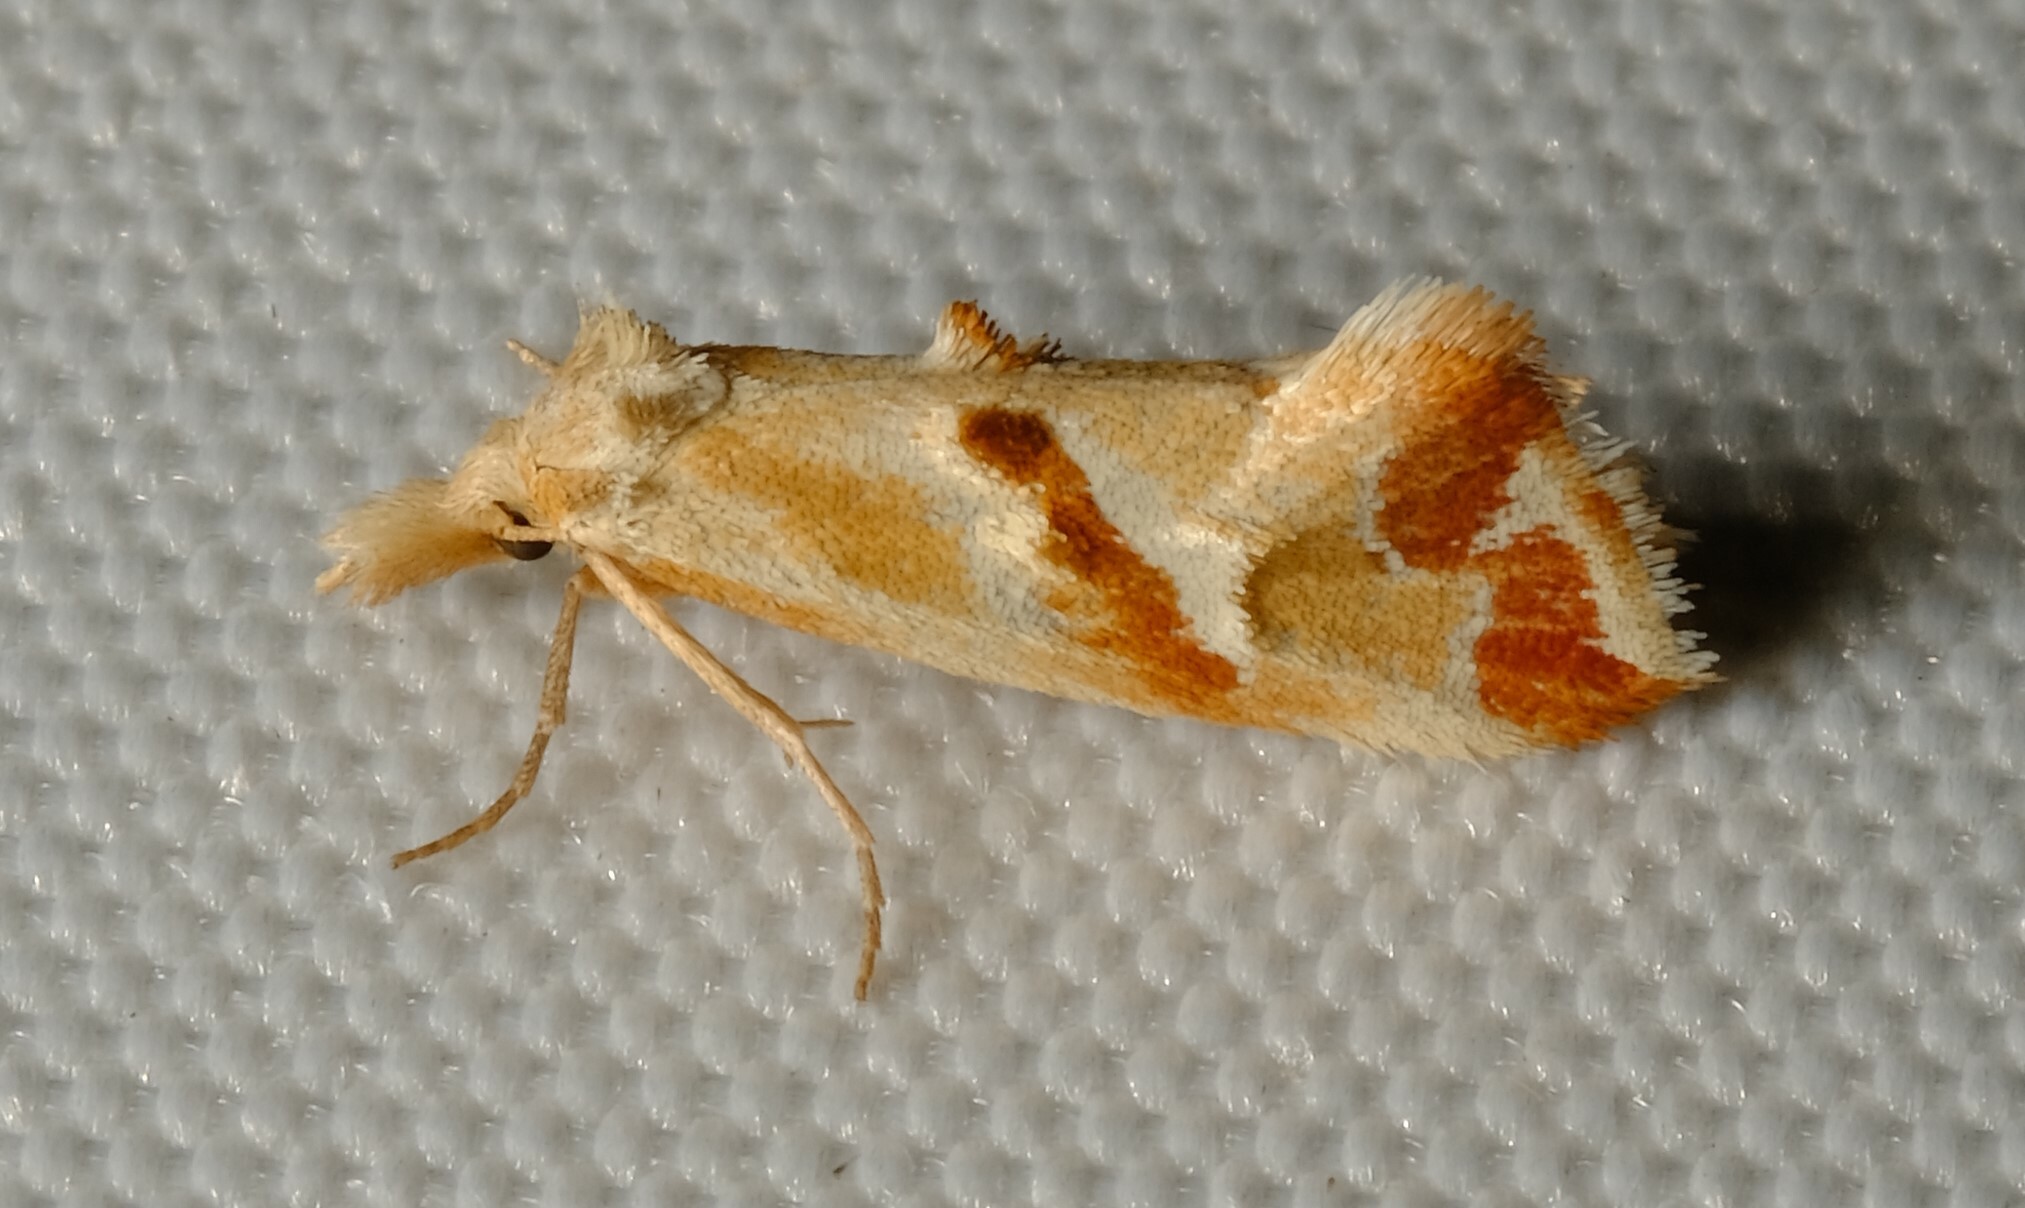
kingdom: Animalia
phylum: Arthropoda
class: Insecta
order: Lepidoptera
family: Tortricidae
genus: Heliocosma
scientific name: Heliocosma
